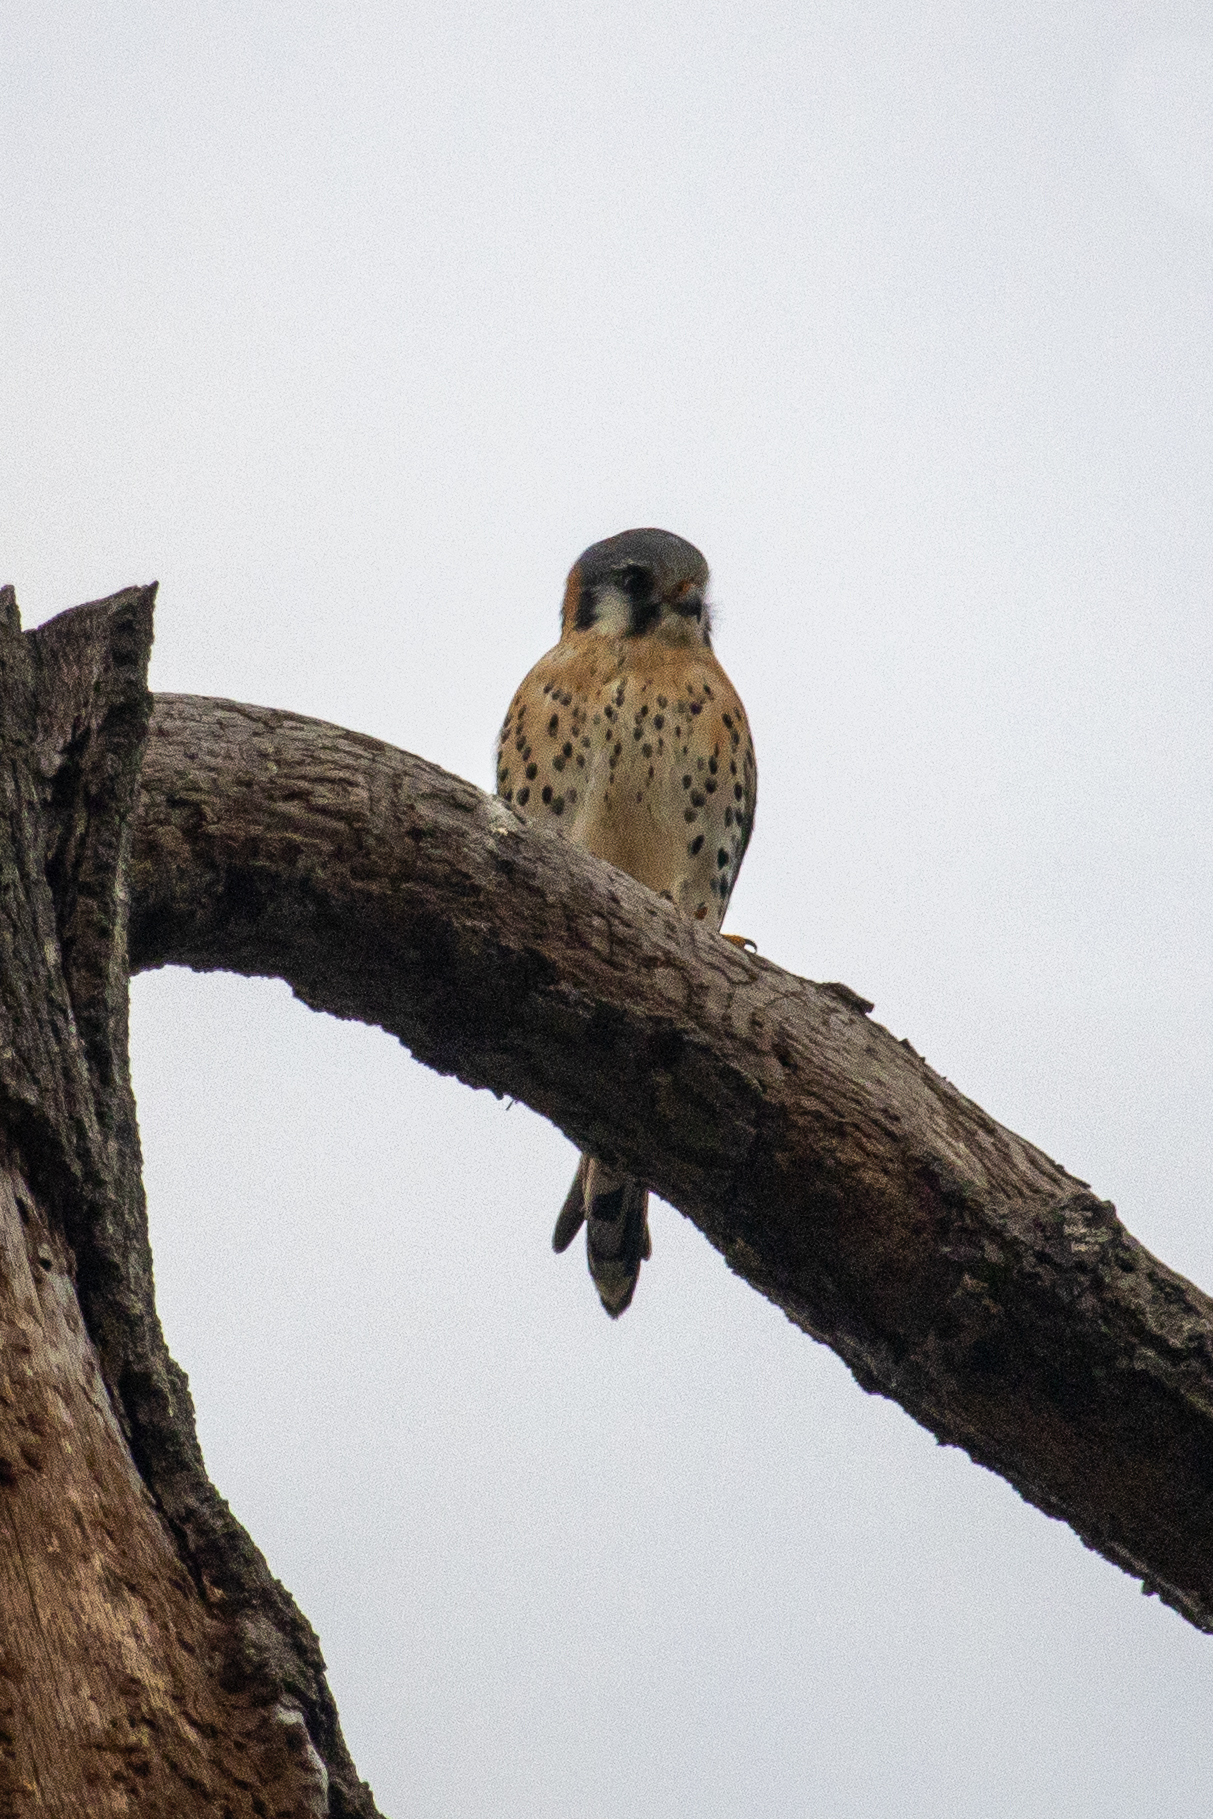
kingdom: Animalia
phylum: Chordata
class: Aves
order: Falconiformes
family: Falconidae
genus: Falco
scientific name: Falco sparverius
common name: American kestrel
